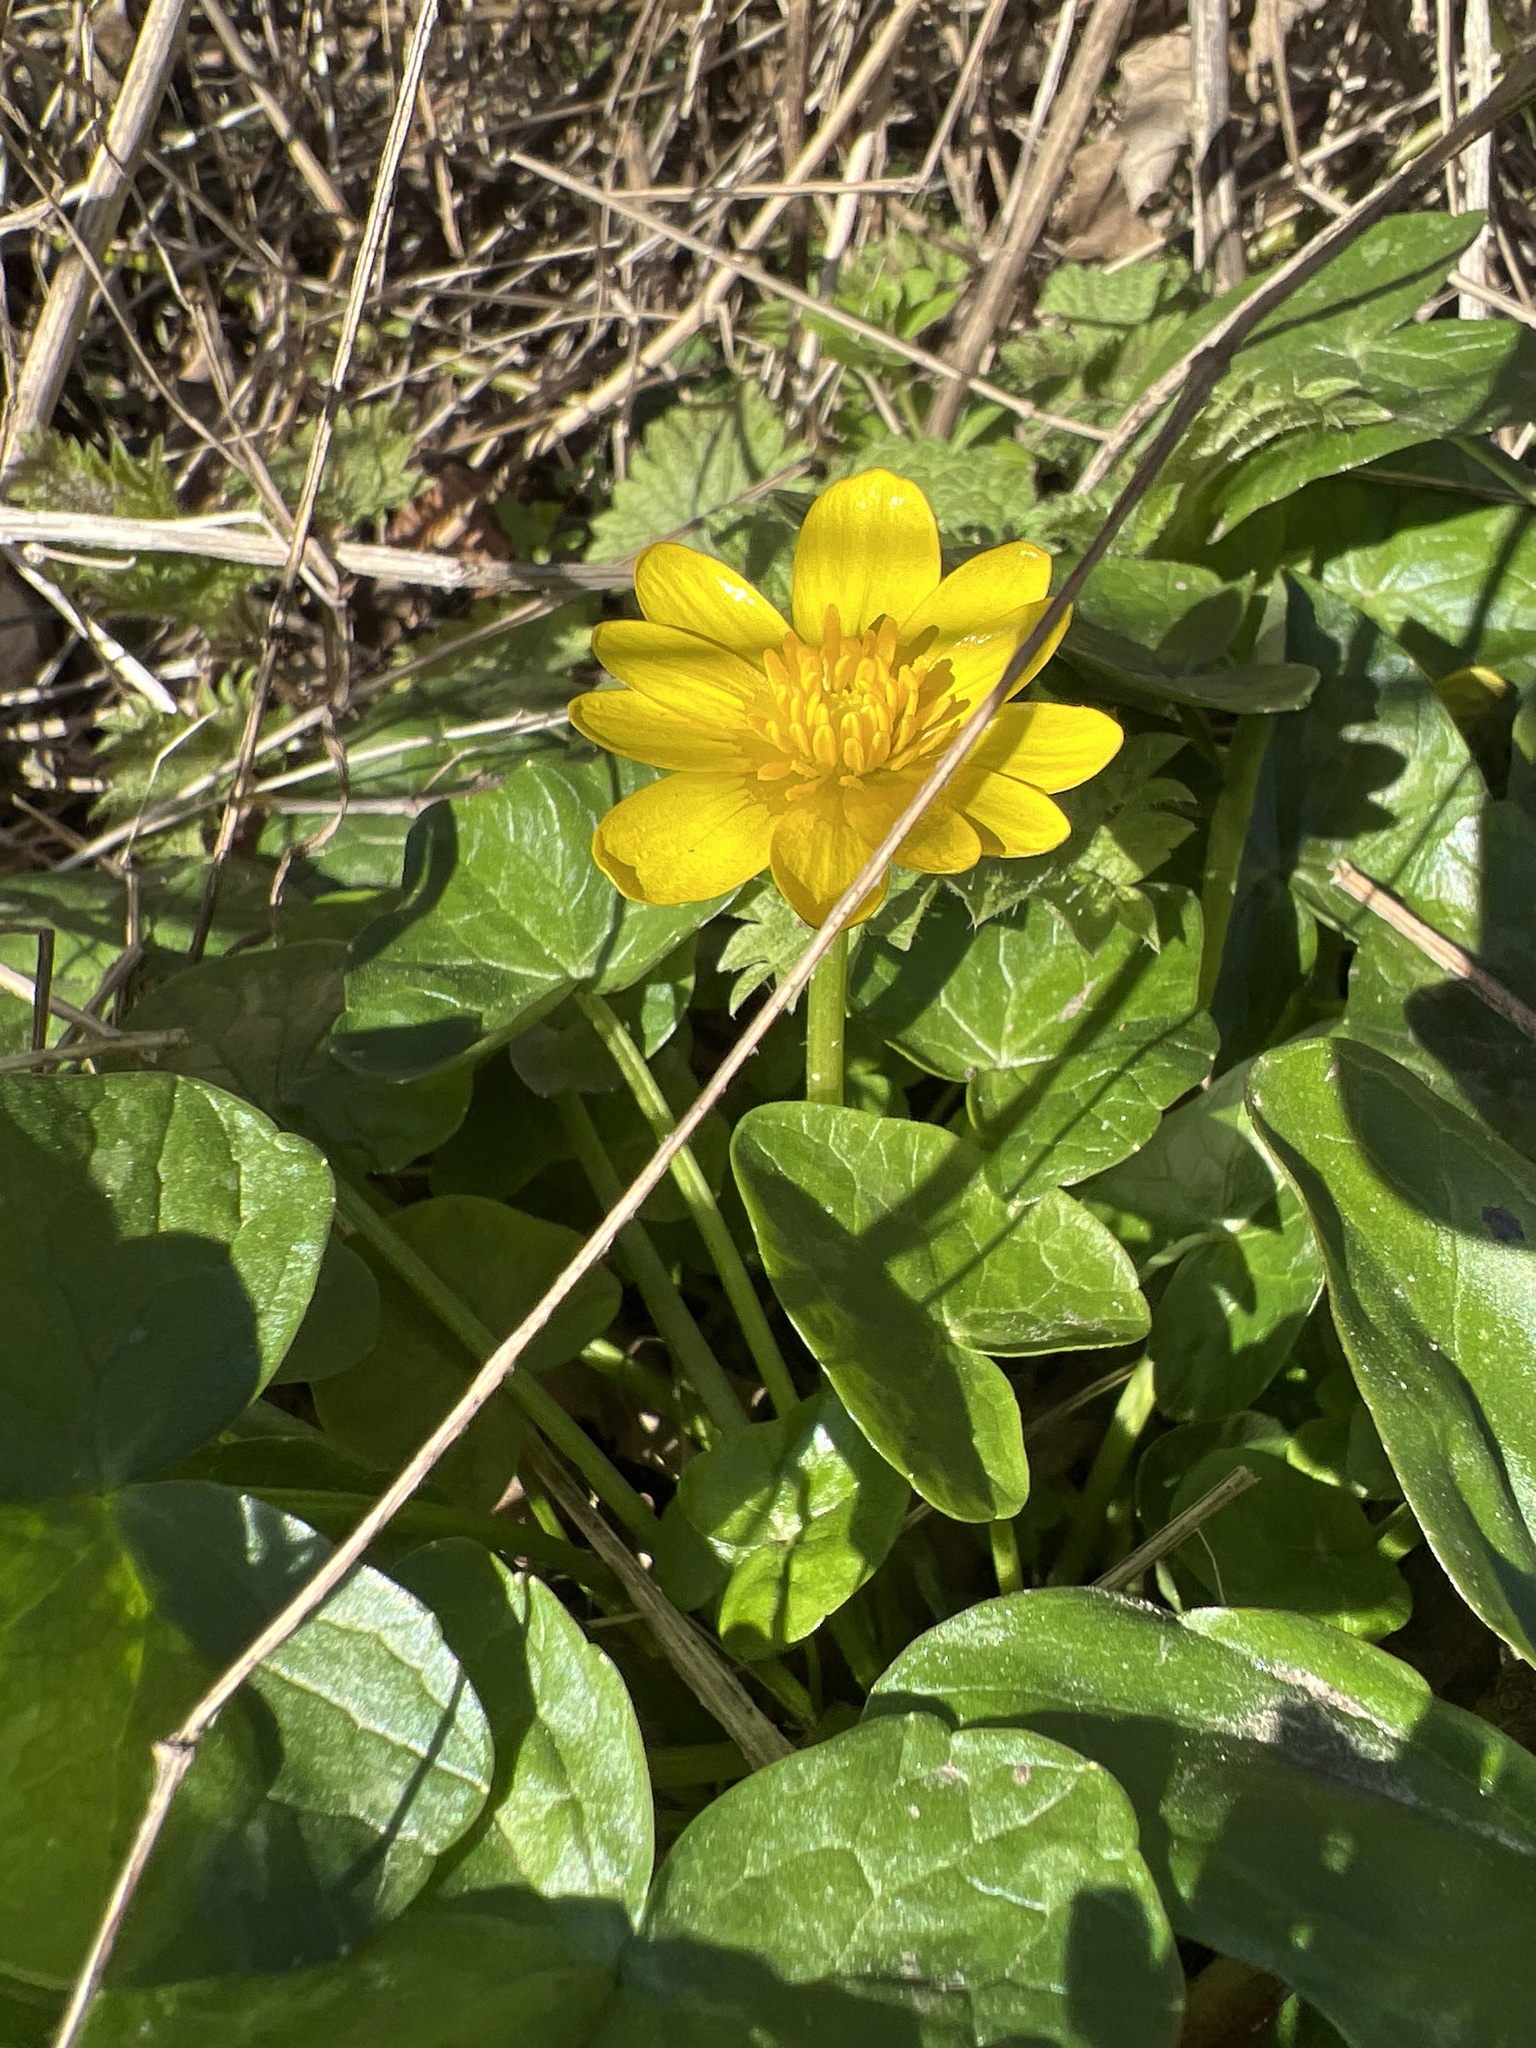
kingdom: Plantae
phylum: Tracheophyta
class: Magnoliopsida
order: Ranunculales
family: Ranunculaceae
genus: Ficaria
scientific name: Ficaria verna
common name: Lesser celandine
